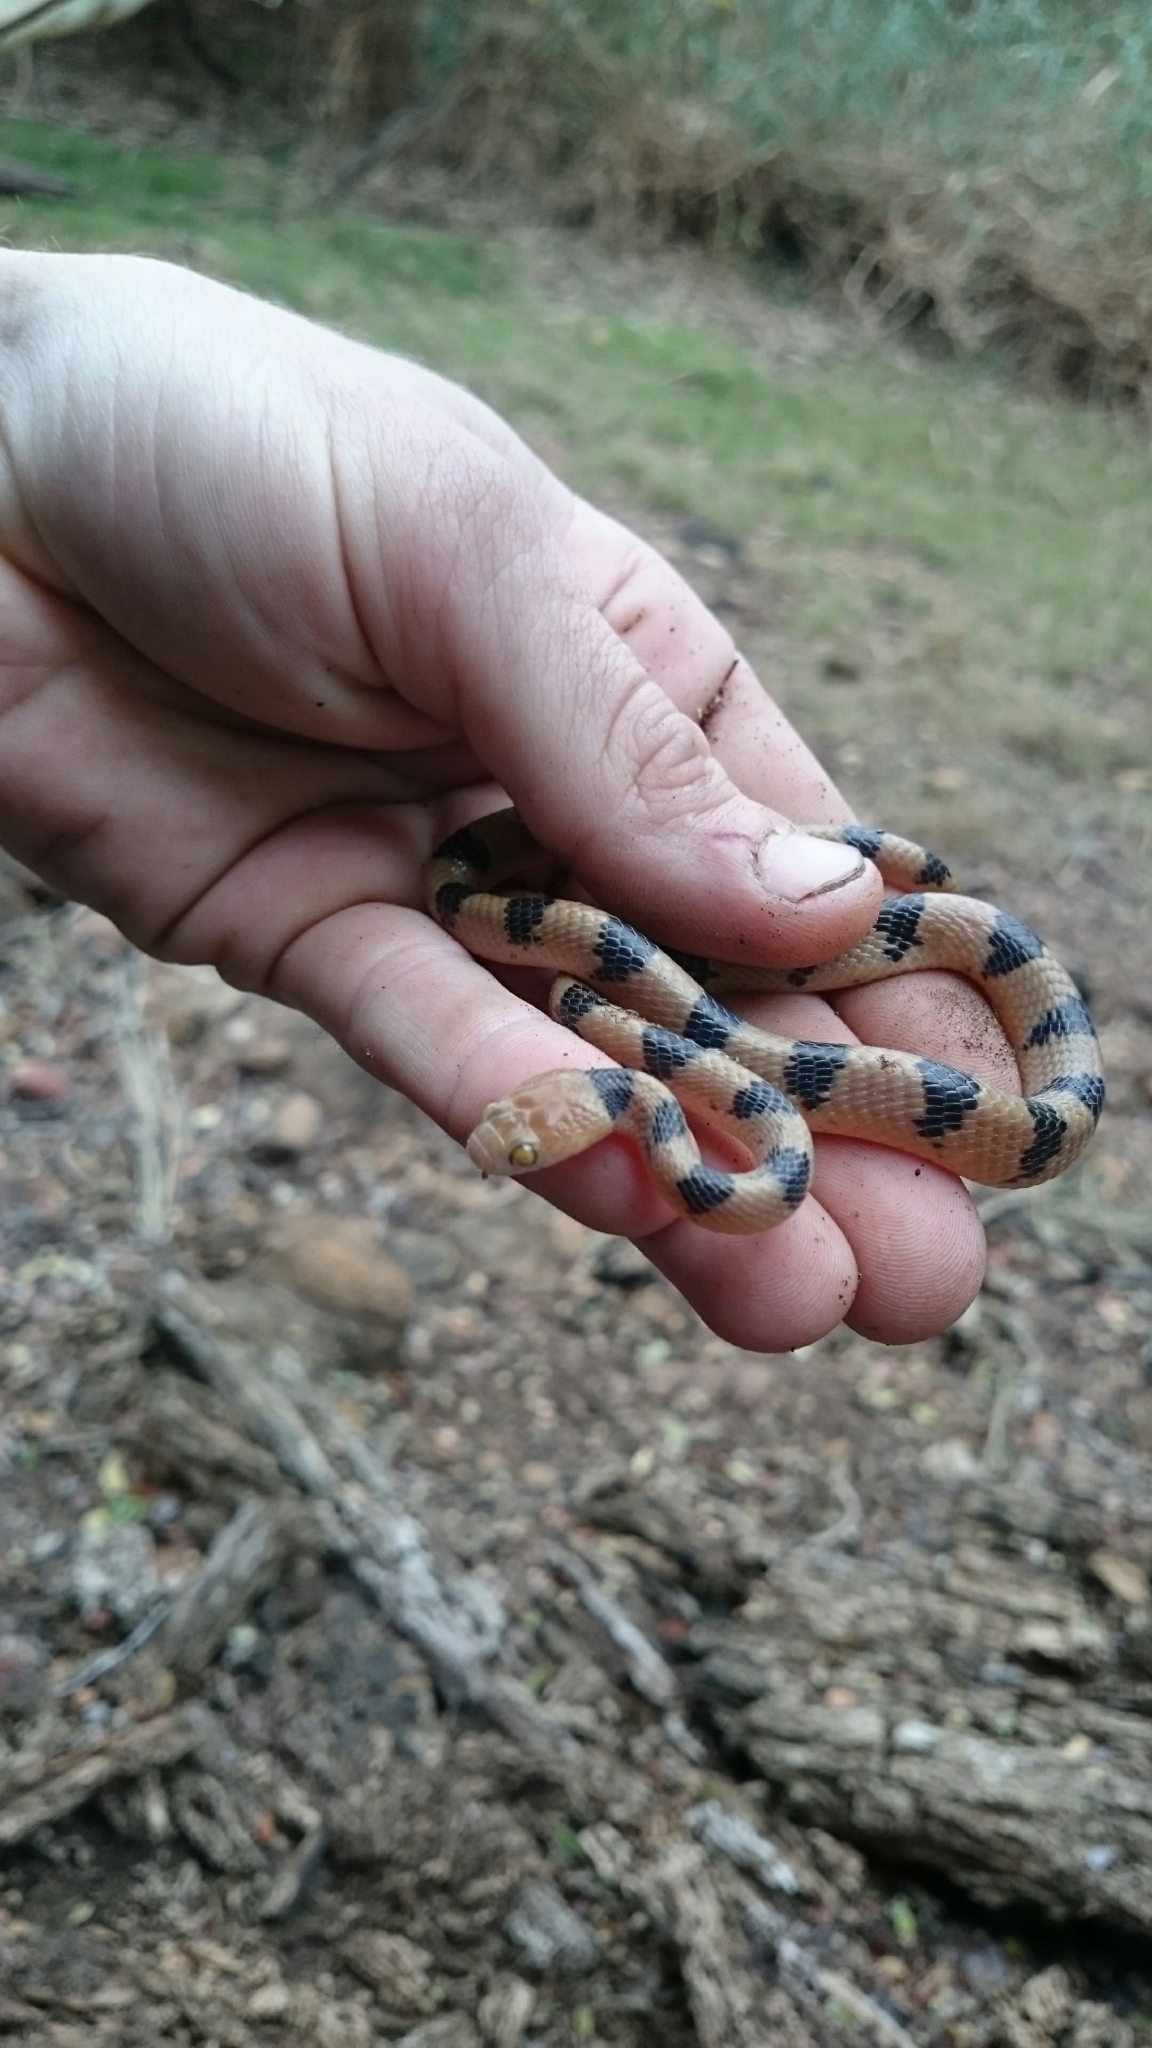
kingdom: Animalia
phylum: Chordata
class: Squamata
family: Colubridae
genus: Telescopus
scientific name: Telescopus semiannulatus
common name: Common tiger snake
